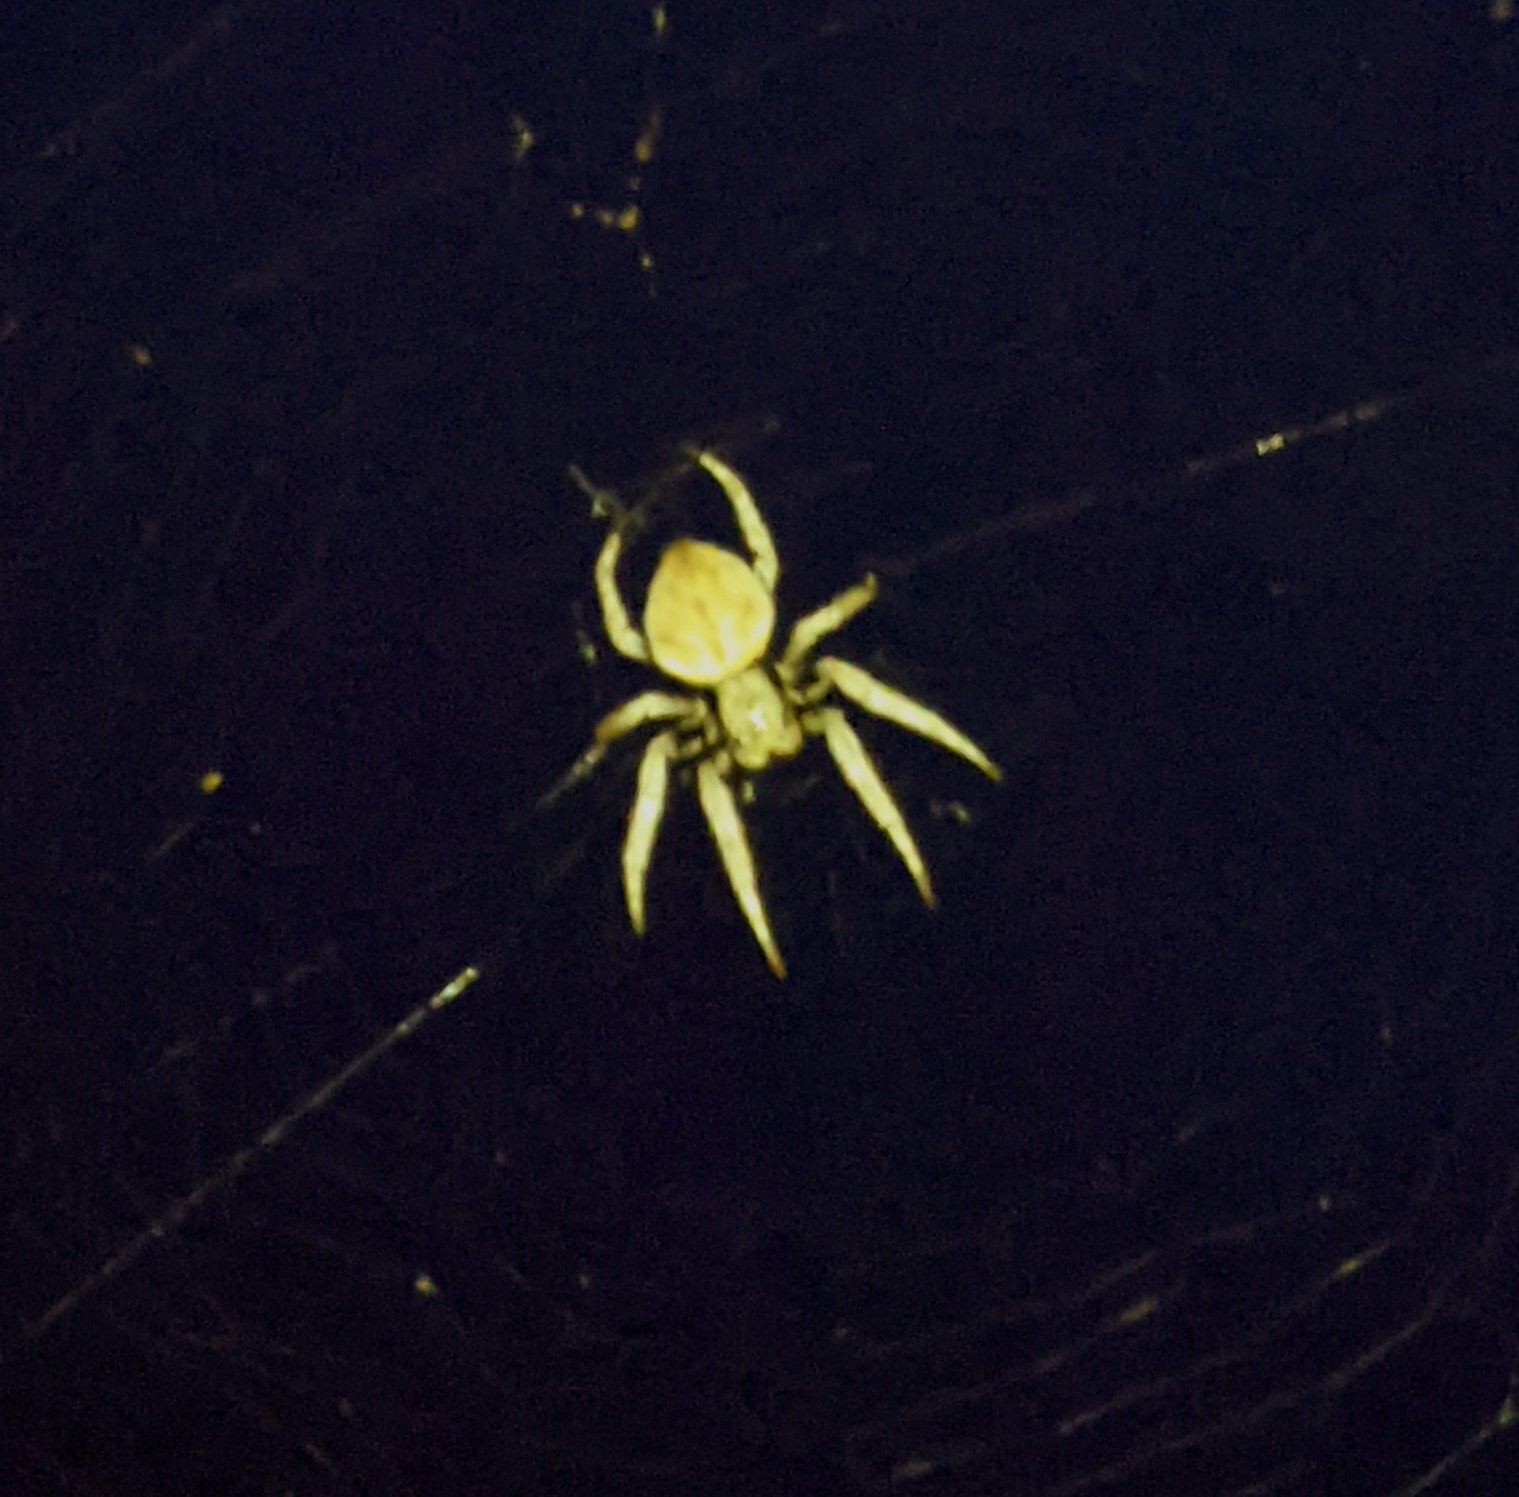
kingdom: Animalia
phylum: Arthropoda
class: Arachnida
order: Araneae
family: Araneidae
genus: Hortophora
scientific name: Hortophora transmarina
